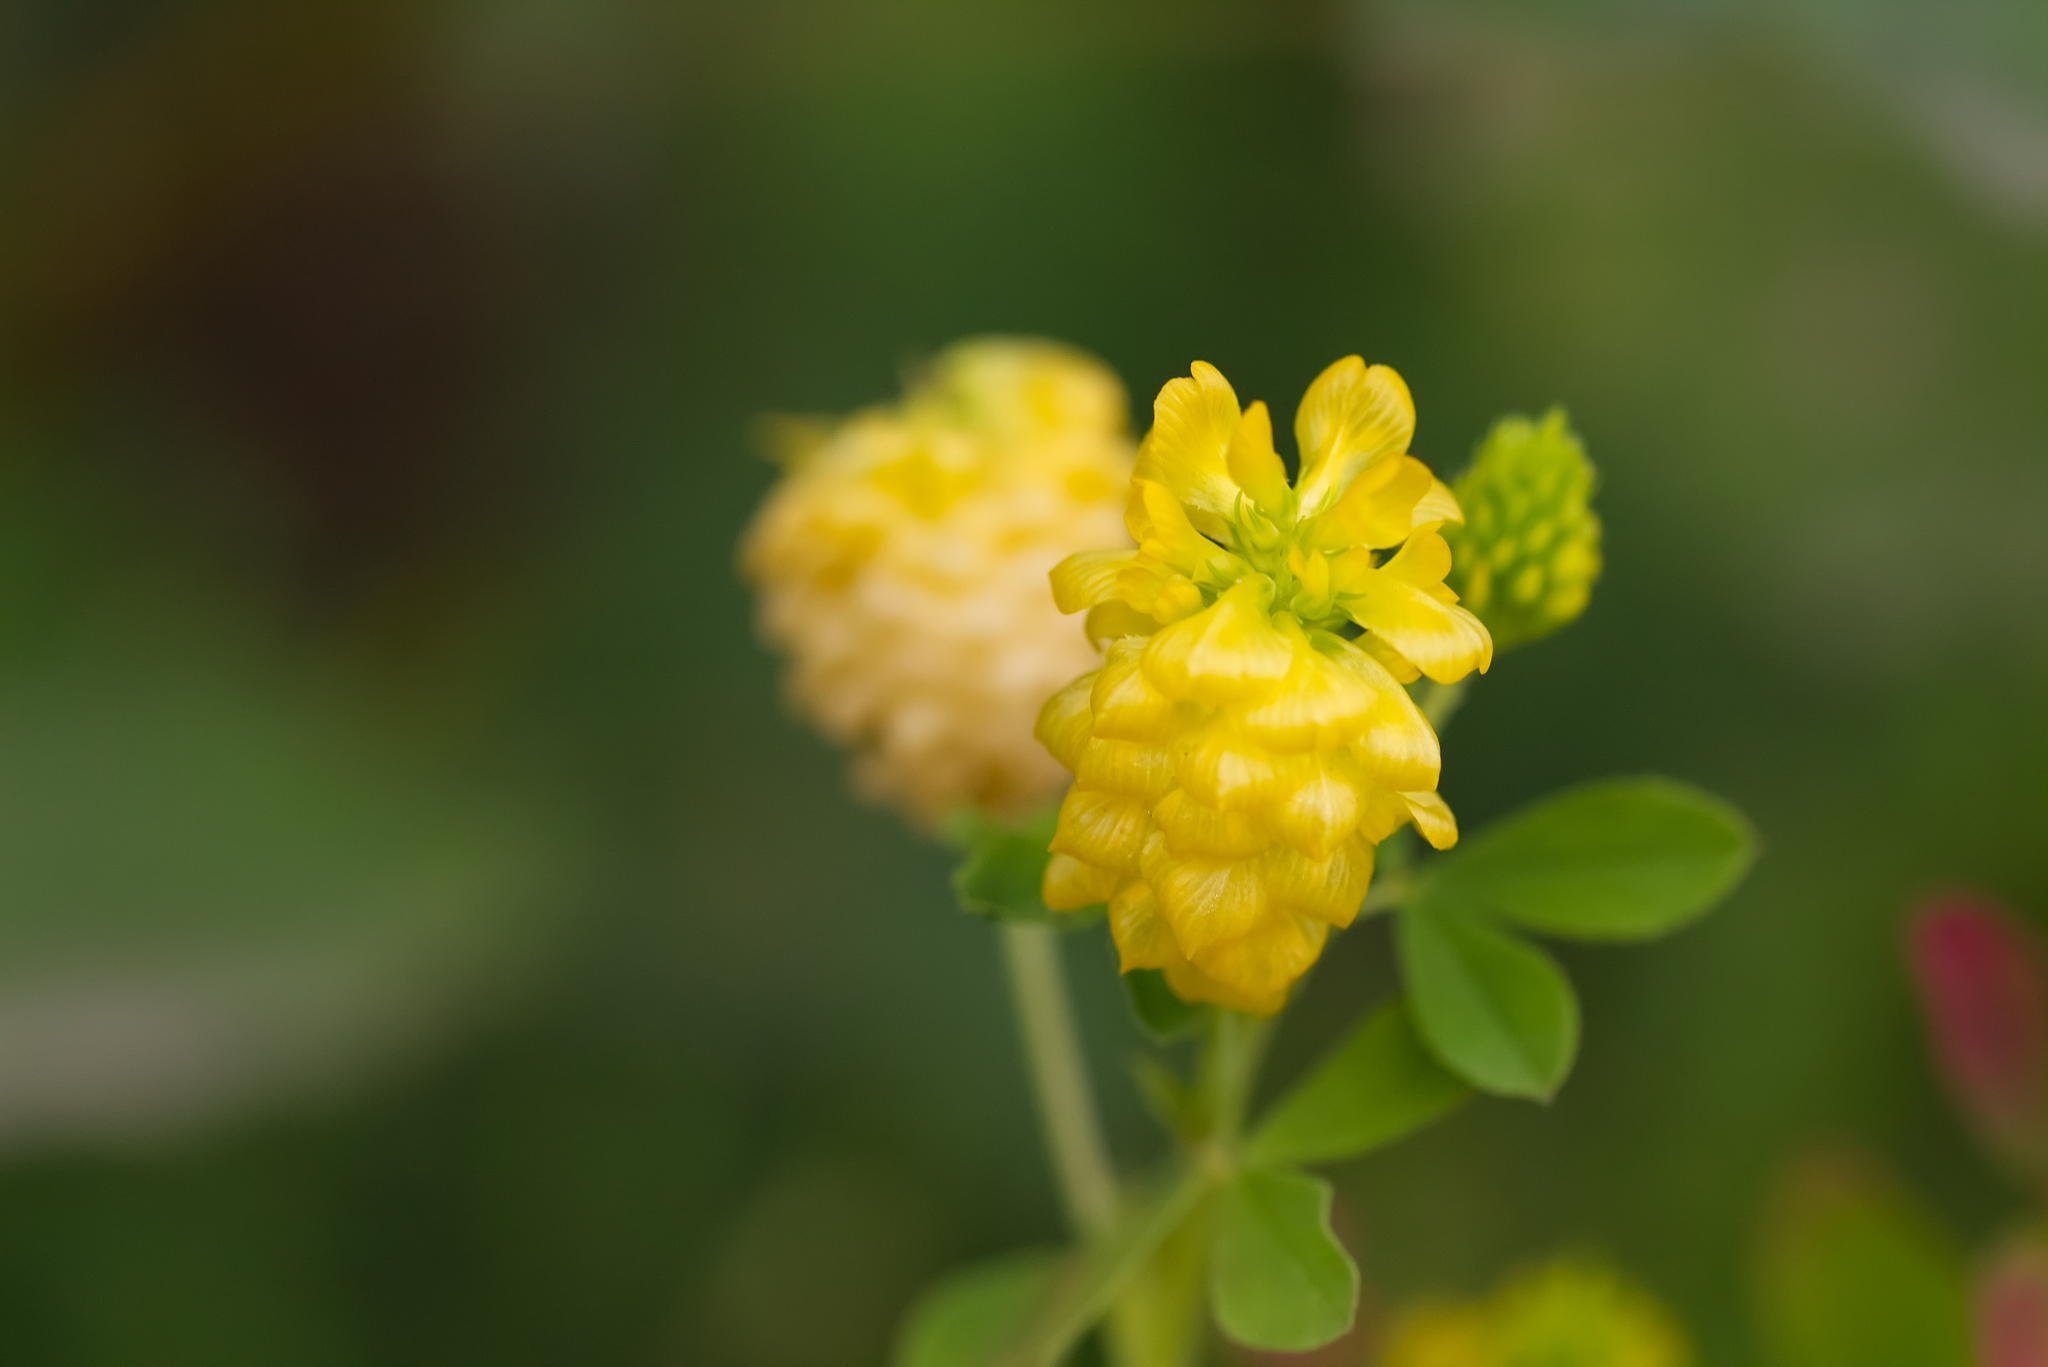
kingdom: Plantae
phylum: Tracheophyta
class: Magnoliopsida
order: Fabales
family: Fabaceae
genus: Trifolium
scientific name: Trifolium aureum
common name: Golden clover
